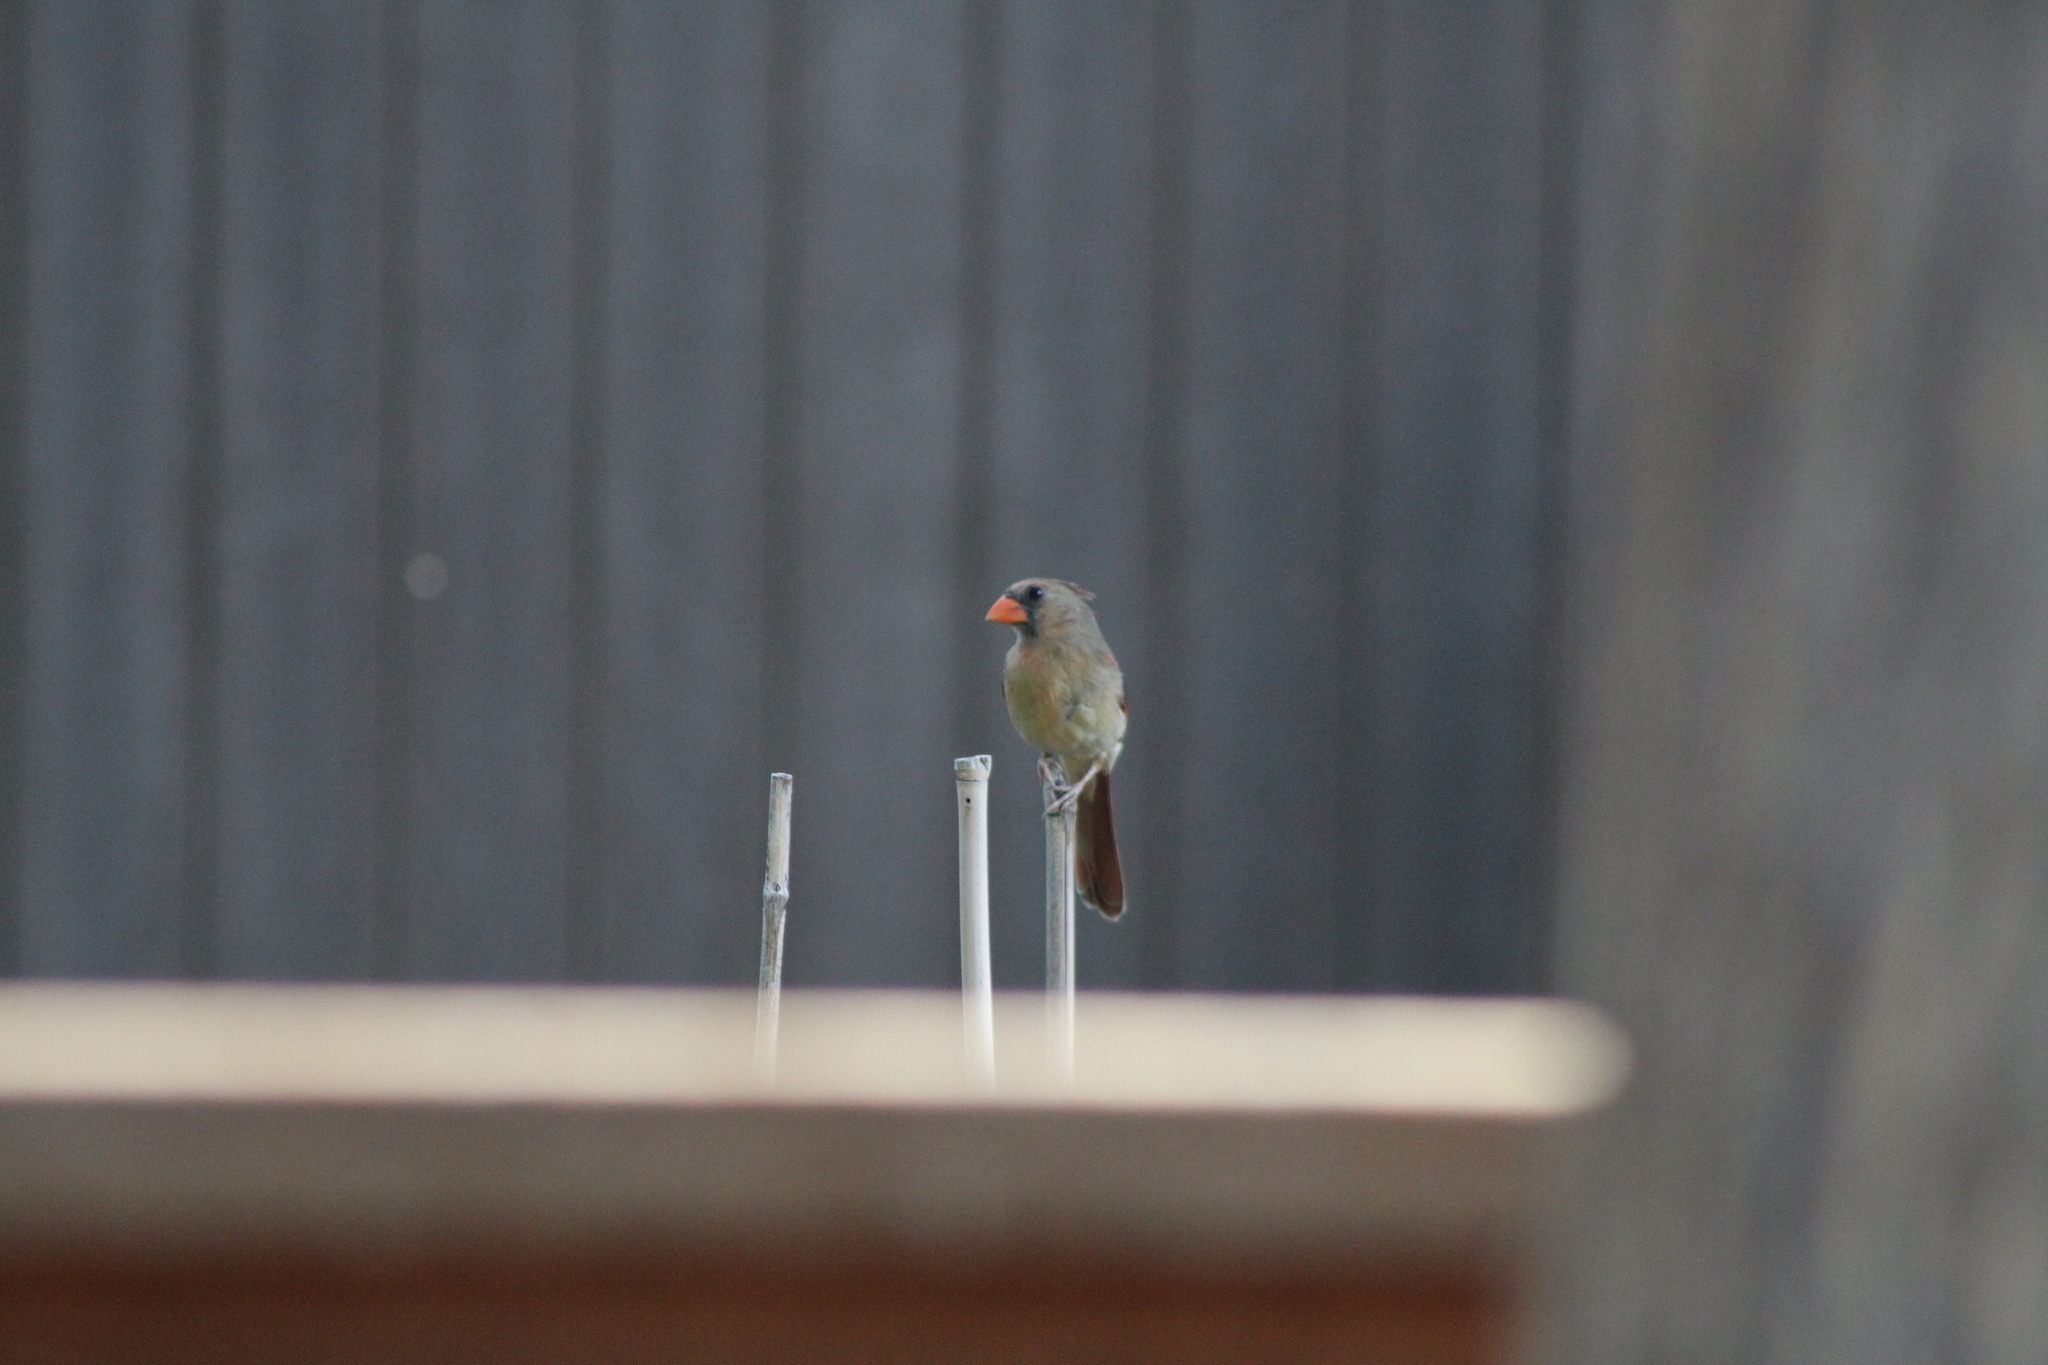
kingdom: Animalia
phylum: Chordata
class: Aves
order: Passeriformes
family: Cardinalidae
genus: Cardinalis
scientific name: Cardinalis cardinalis
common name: Northern cardinal
